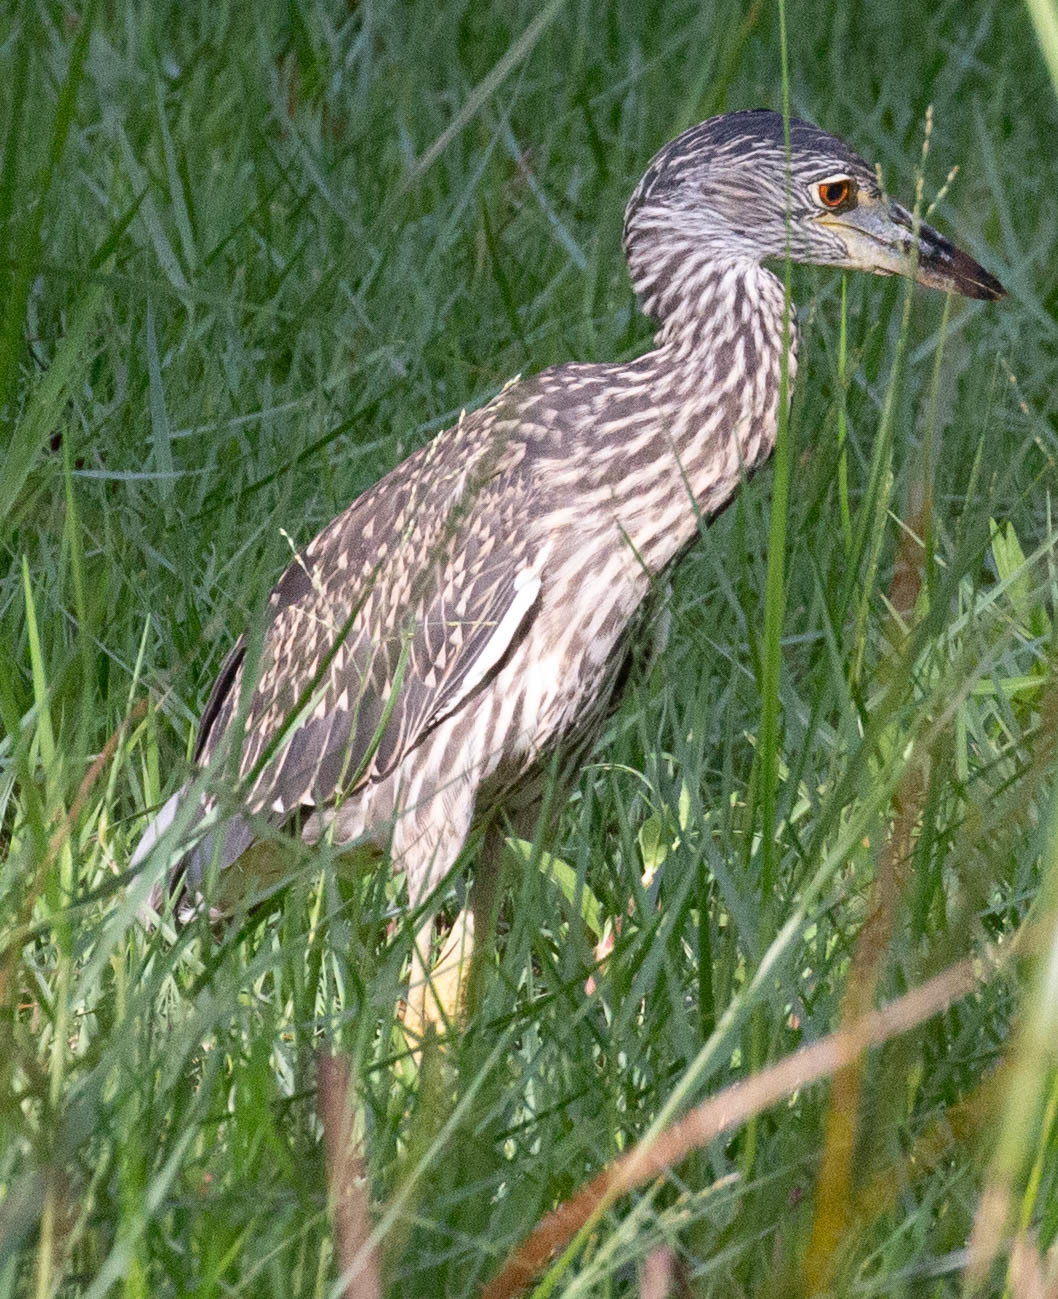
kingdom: Animalia
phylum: Chordata
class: Aves
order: Pelecaniformes
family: Ardeidae
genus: Nyctanassa
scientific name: Nyctanassa violacea
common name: Yellow-crowned night heron
